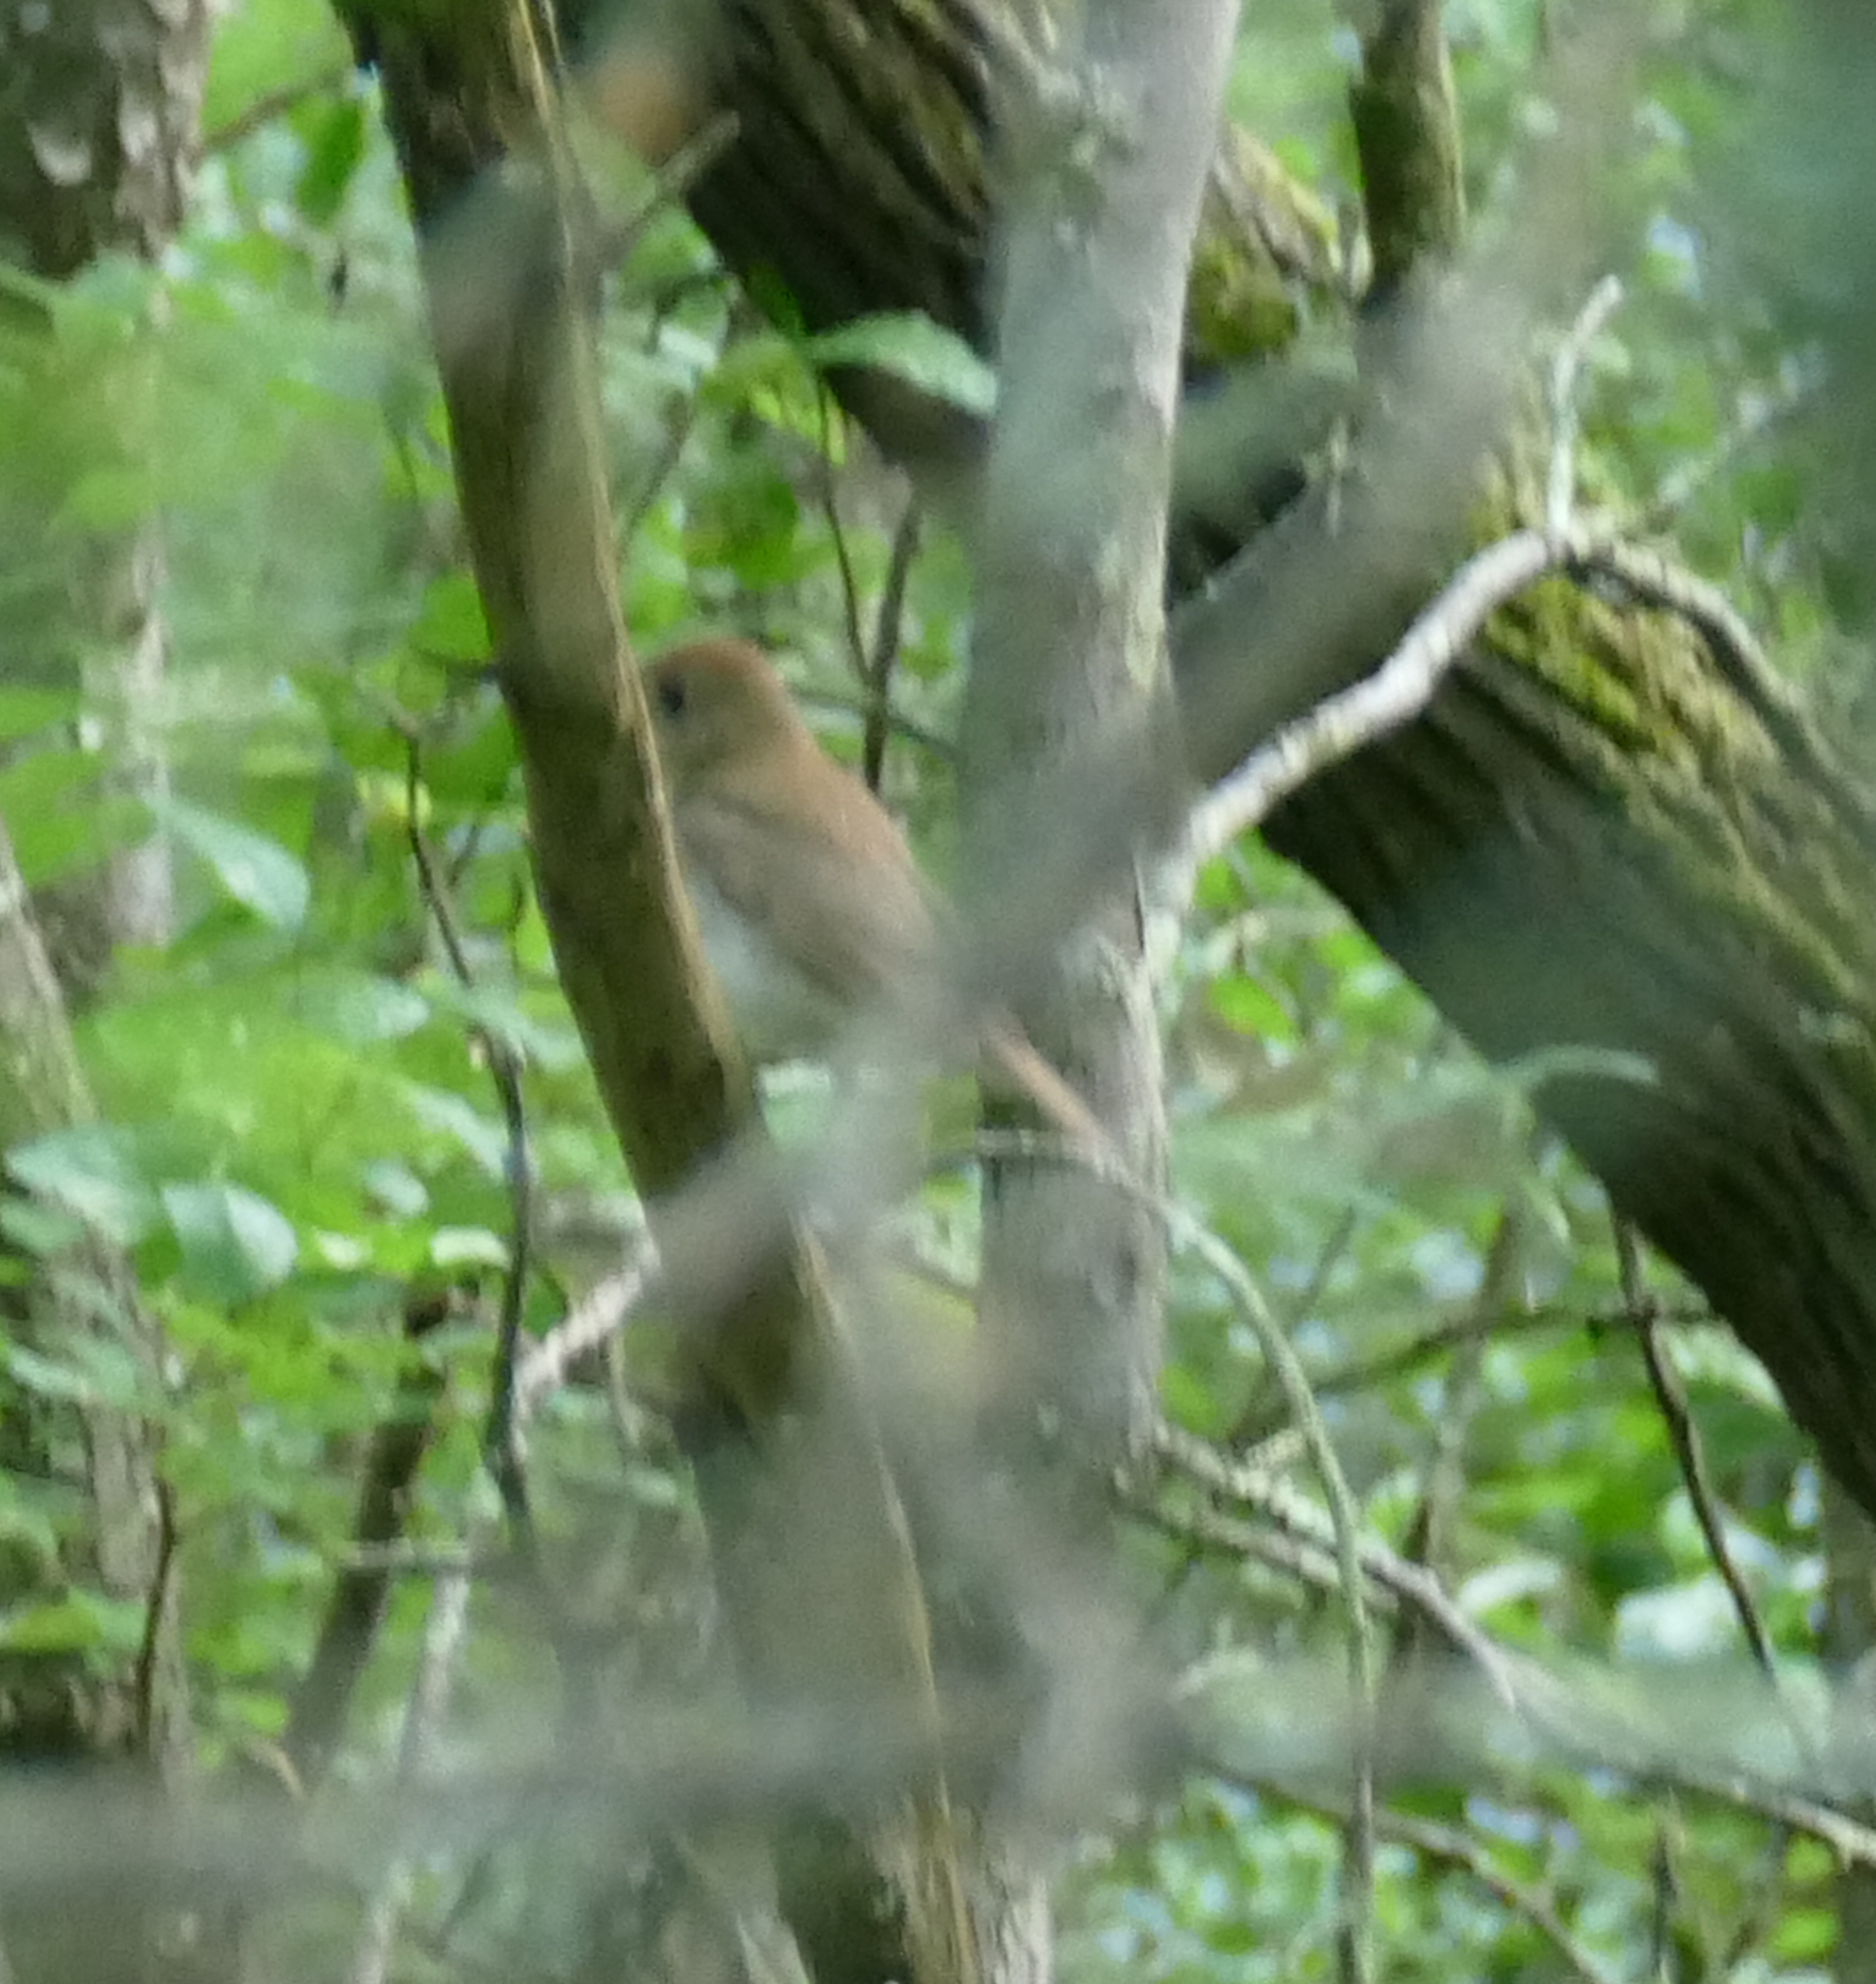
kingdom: Animalia
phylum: Chordata
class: Aves
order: Passeriformes
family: Turdidae
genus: Catharus
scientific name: Catharus fuscescens
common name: Veery
